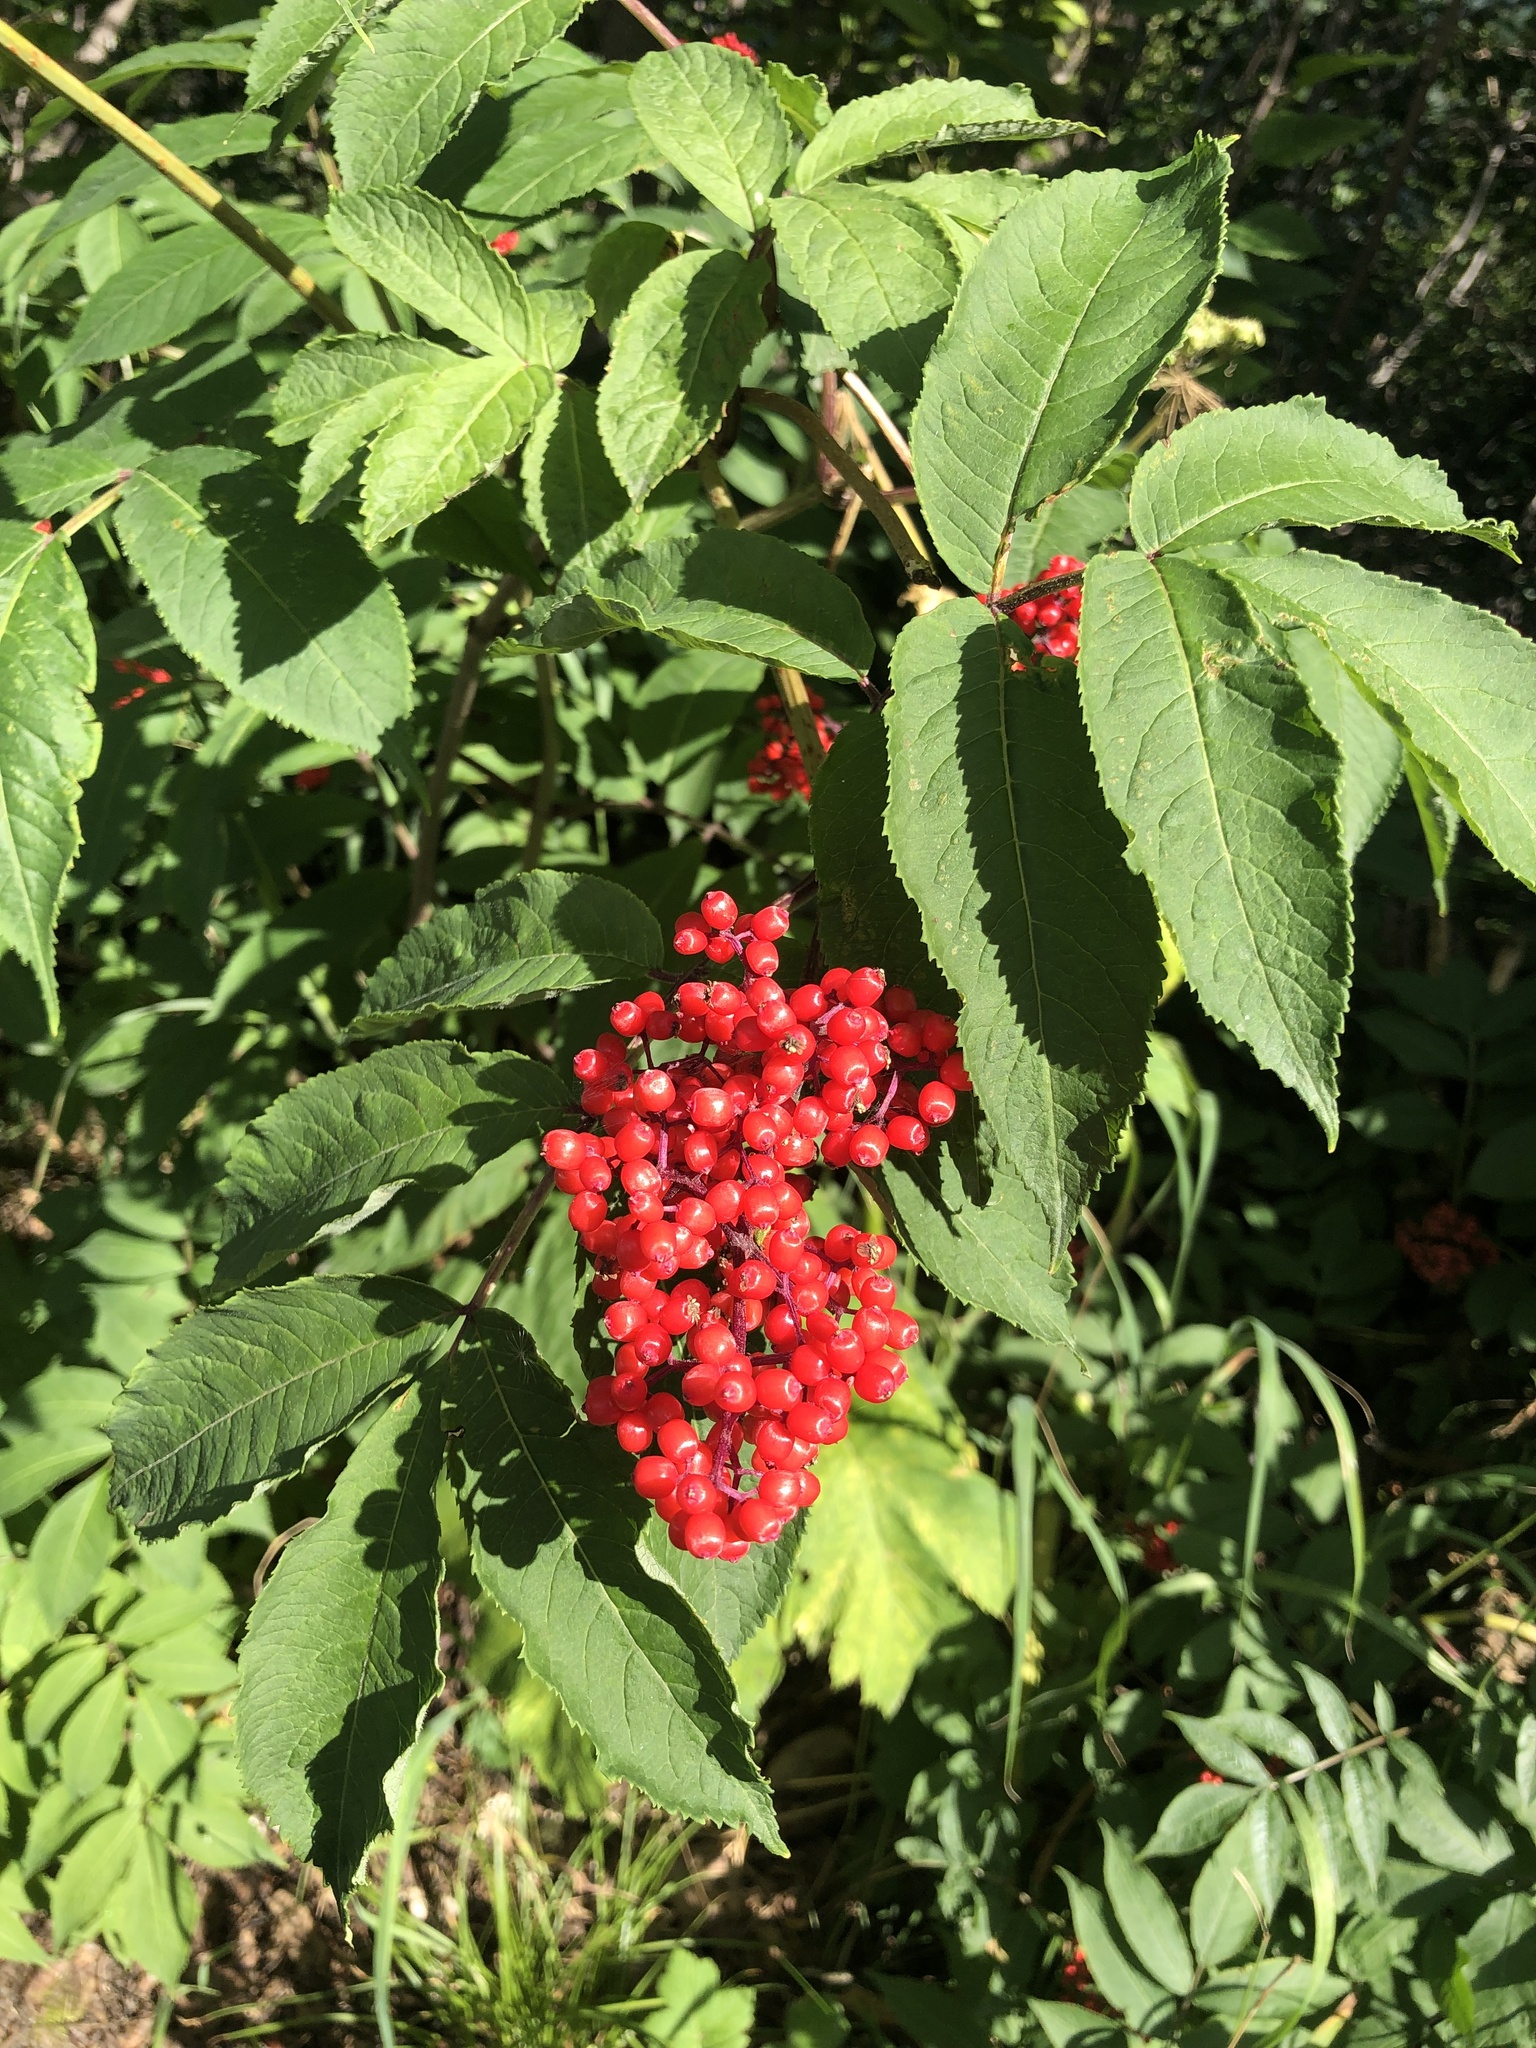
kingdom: Plantae
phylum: Tracheophyta
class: Magnoliopsida
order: Dipsacales
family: Viburnaceae
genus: Sambucus
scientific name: Sambucus racemosa
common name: Red-berried elder
